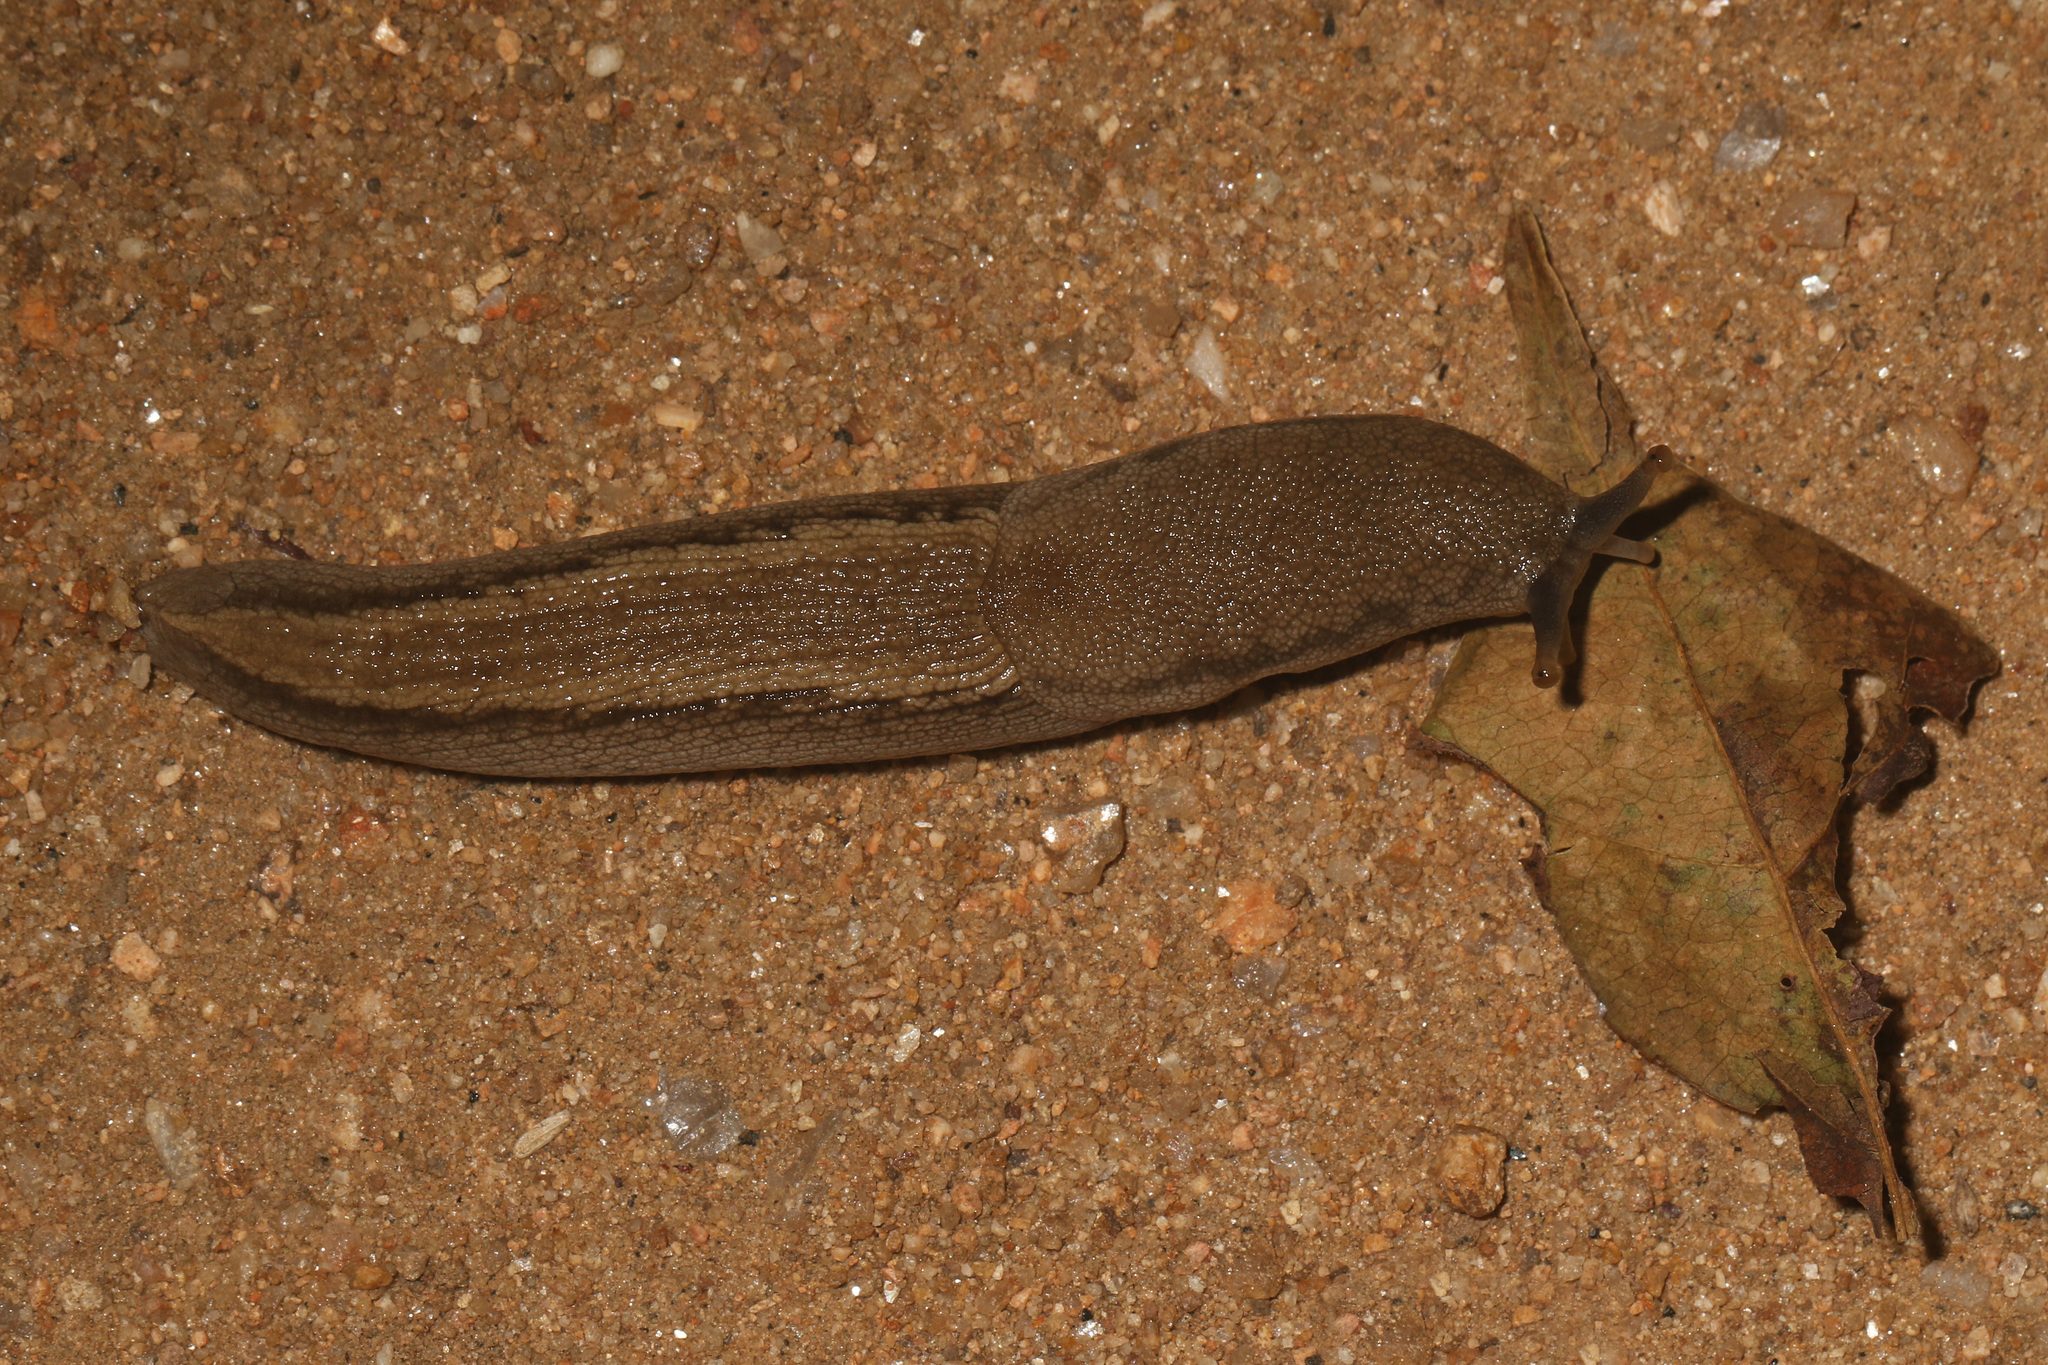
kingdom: Animalia
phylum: Mollusca
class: Gastropoda
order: Stylommatophora
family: Urocyclidae
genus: Urocyclus
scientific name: Urocyclus kirkii
